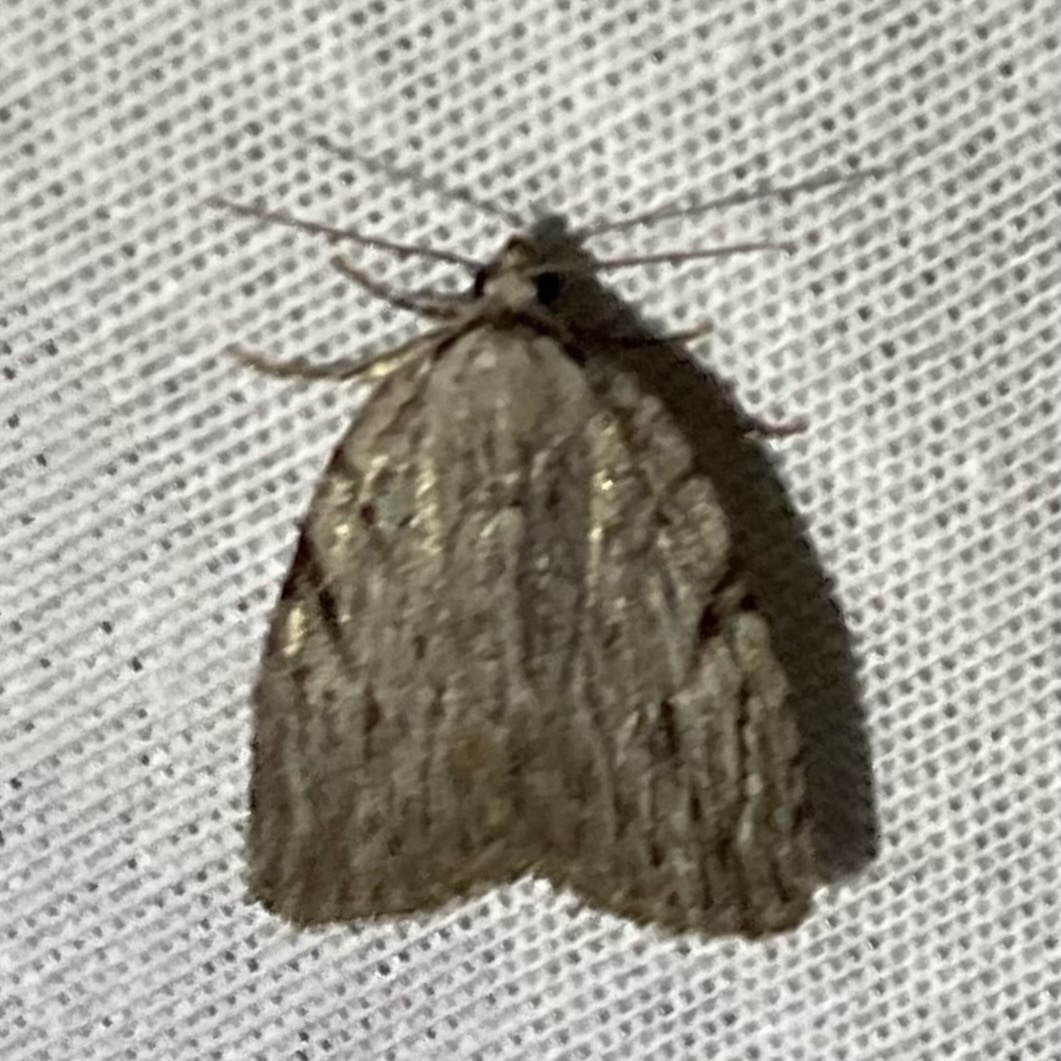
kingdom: Animalia
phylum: Arthropoda
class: Insecta
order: Lepidoptera
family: Noctuidae
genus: Balsa
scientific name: Balsa tristrigella
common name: Three-lined balsa moth
